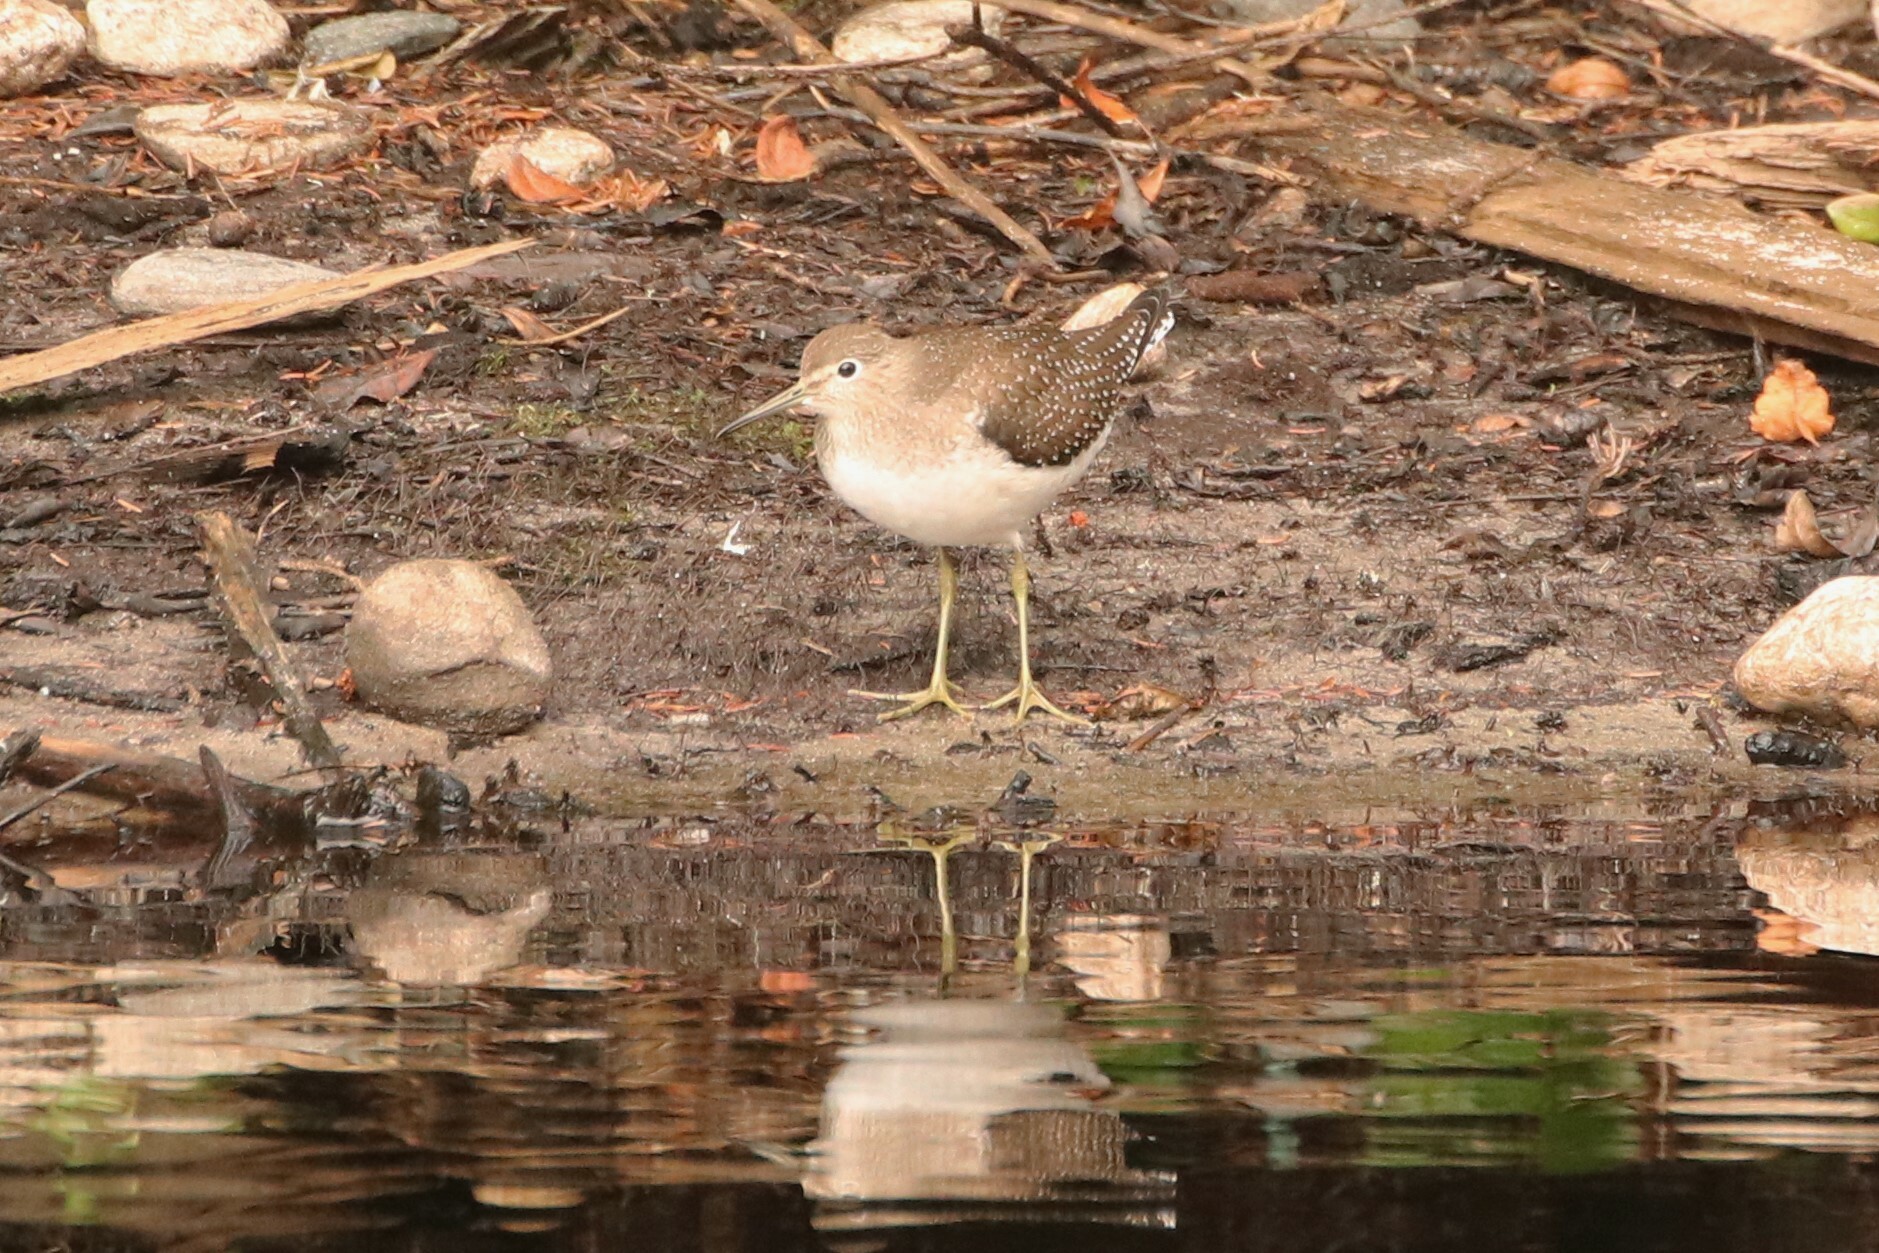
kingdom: Animalia
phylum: Chordata
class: Aves
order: Charadriiformes
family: Scolopacidae
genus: Tringa
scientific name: Tringa solitaria
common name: Solitary sandpiper
